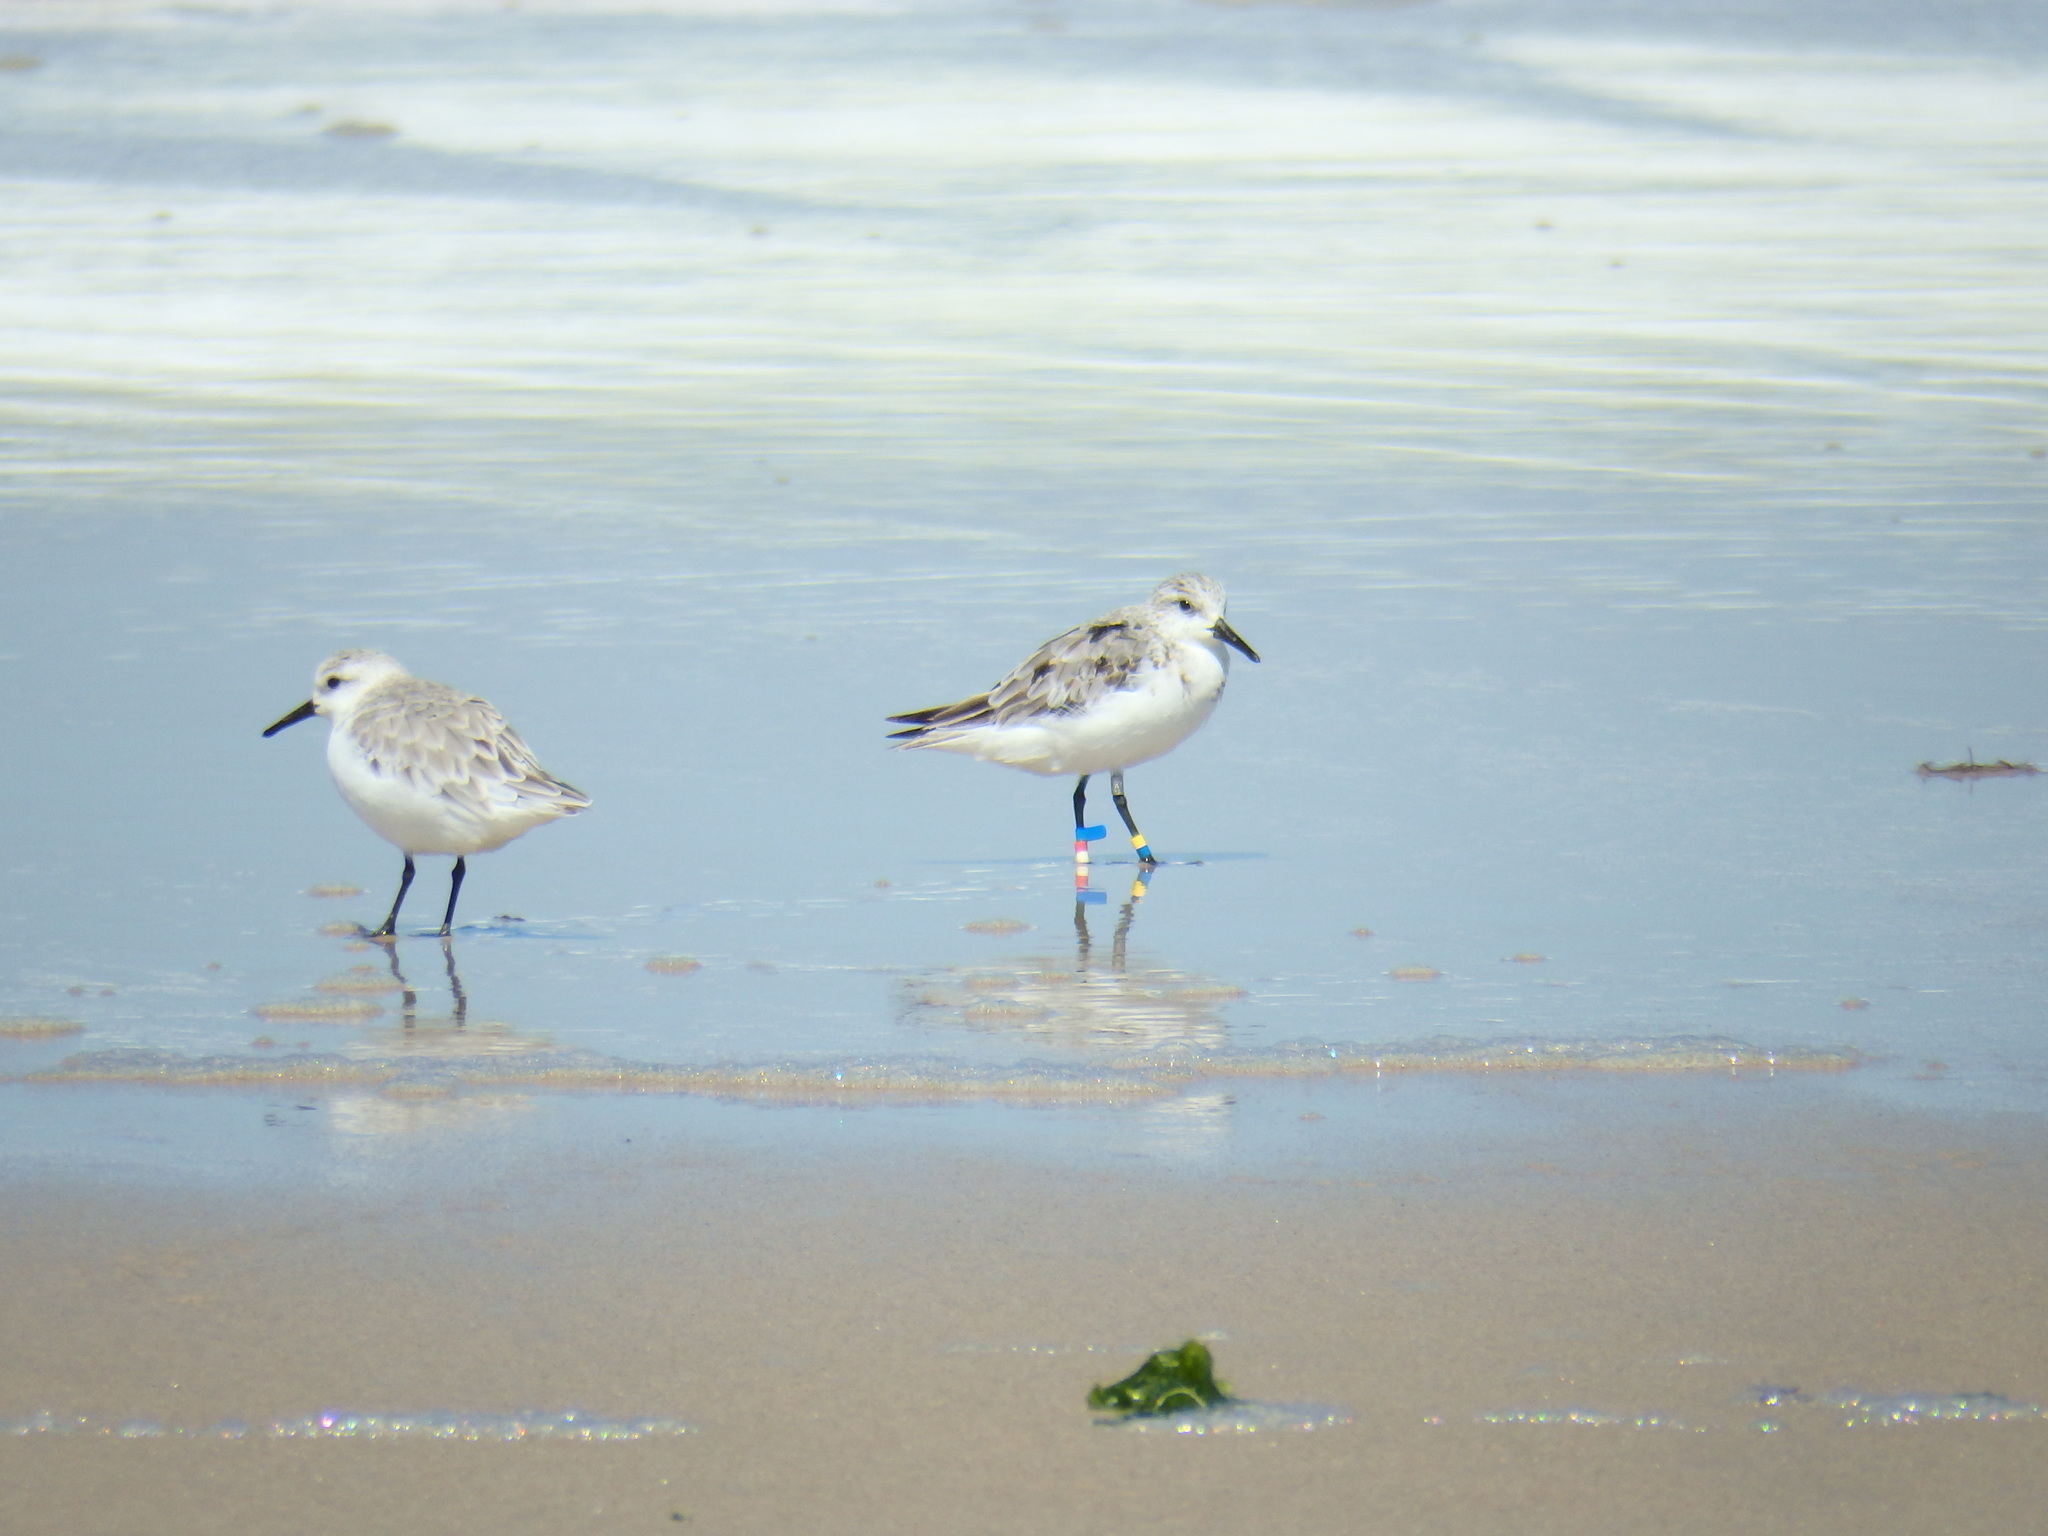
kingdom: Animalia
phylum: Chordata
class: Aves
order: Charadriiformes
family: Scolopacidae
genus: Calidris
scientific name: Calidris alba
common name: Sanderling
